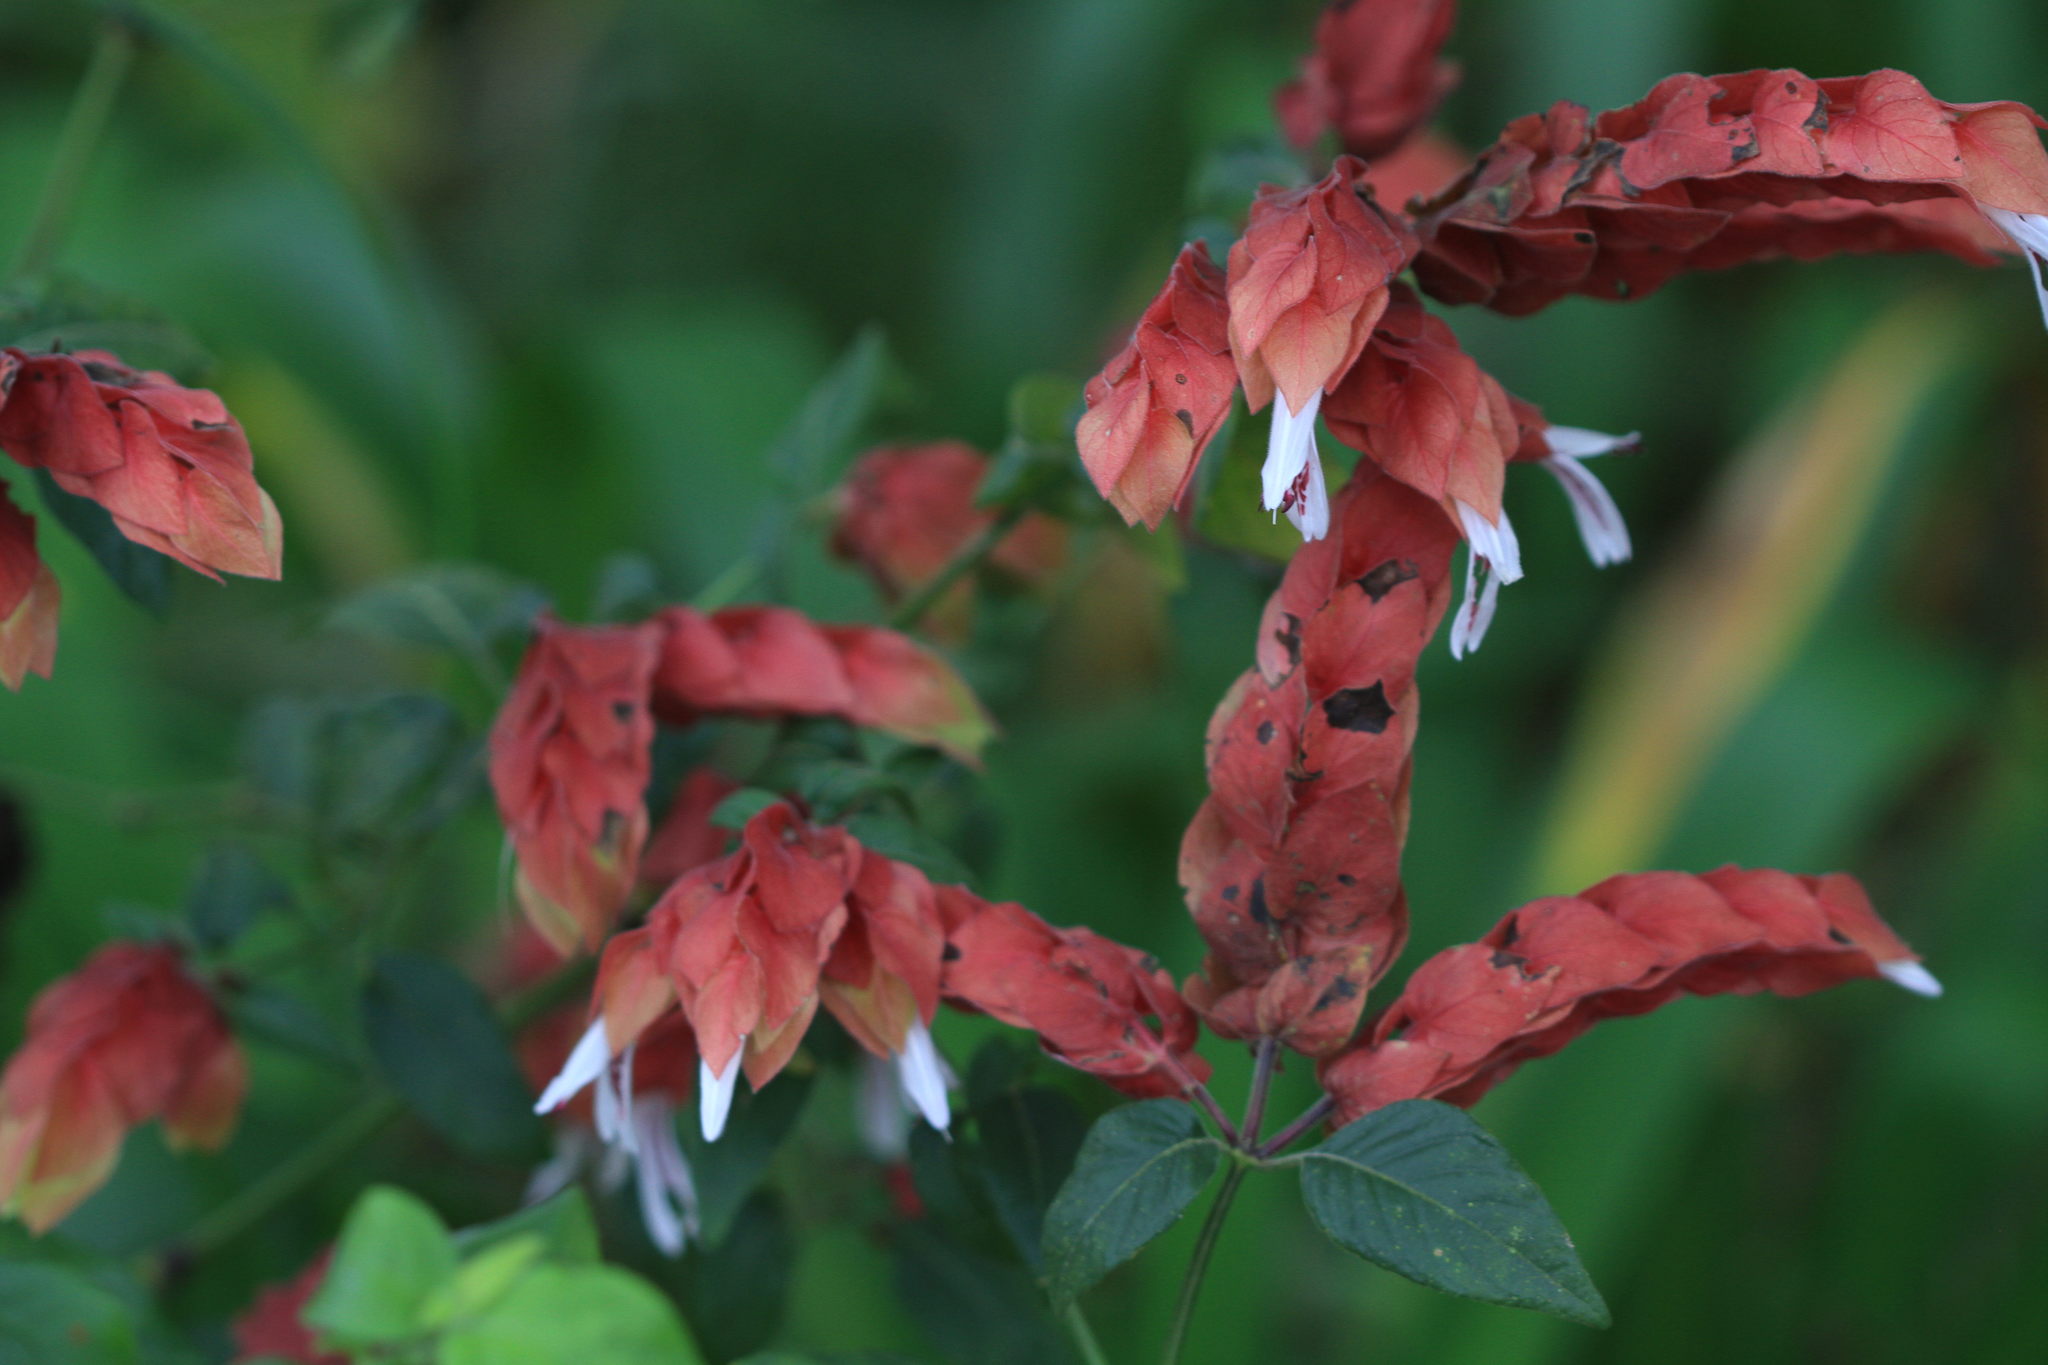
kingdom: Plantae
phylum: Tracheophyta
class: Magnoliopsida
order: Lamiales
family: Acanthaceae
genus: Justicia
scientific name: Justicia brandegeeana
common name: Shrimpplant
